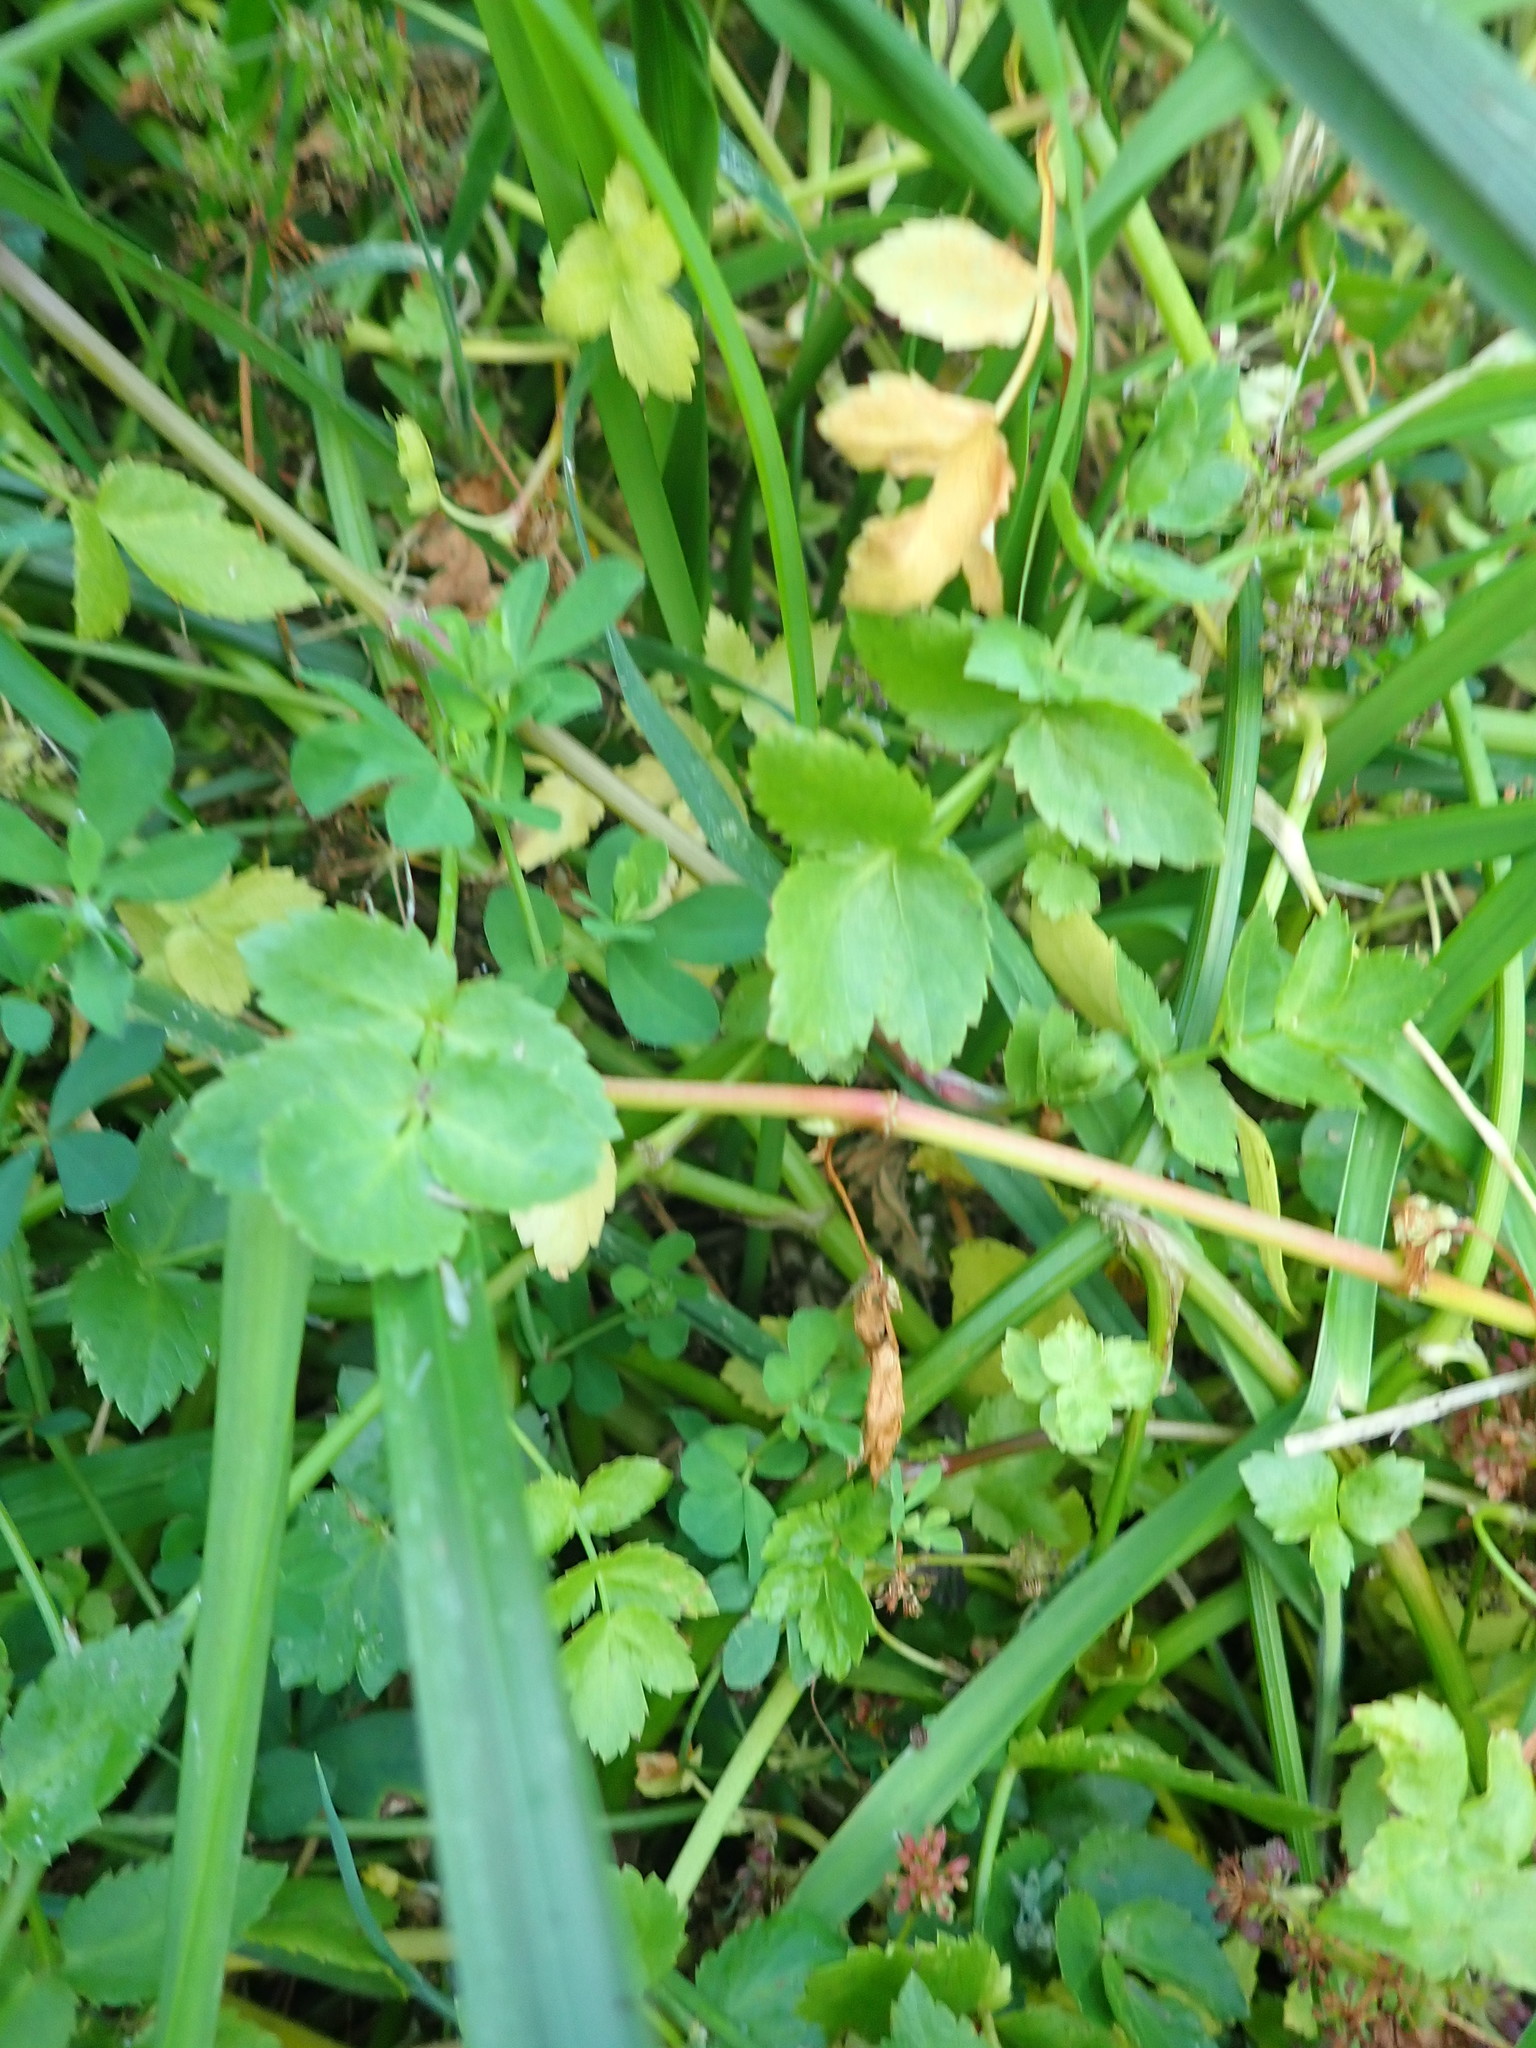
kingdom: Plantae
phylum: Tracheophyta
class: Magnoliopsida
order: Apiales
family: Apiaceae
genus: Helosciadium
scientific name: Helosciadium nodiflorum
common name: Fool's-watercress
